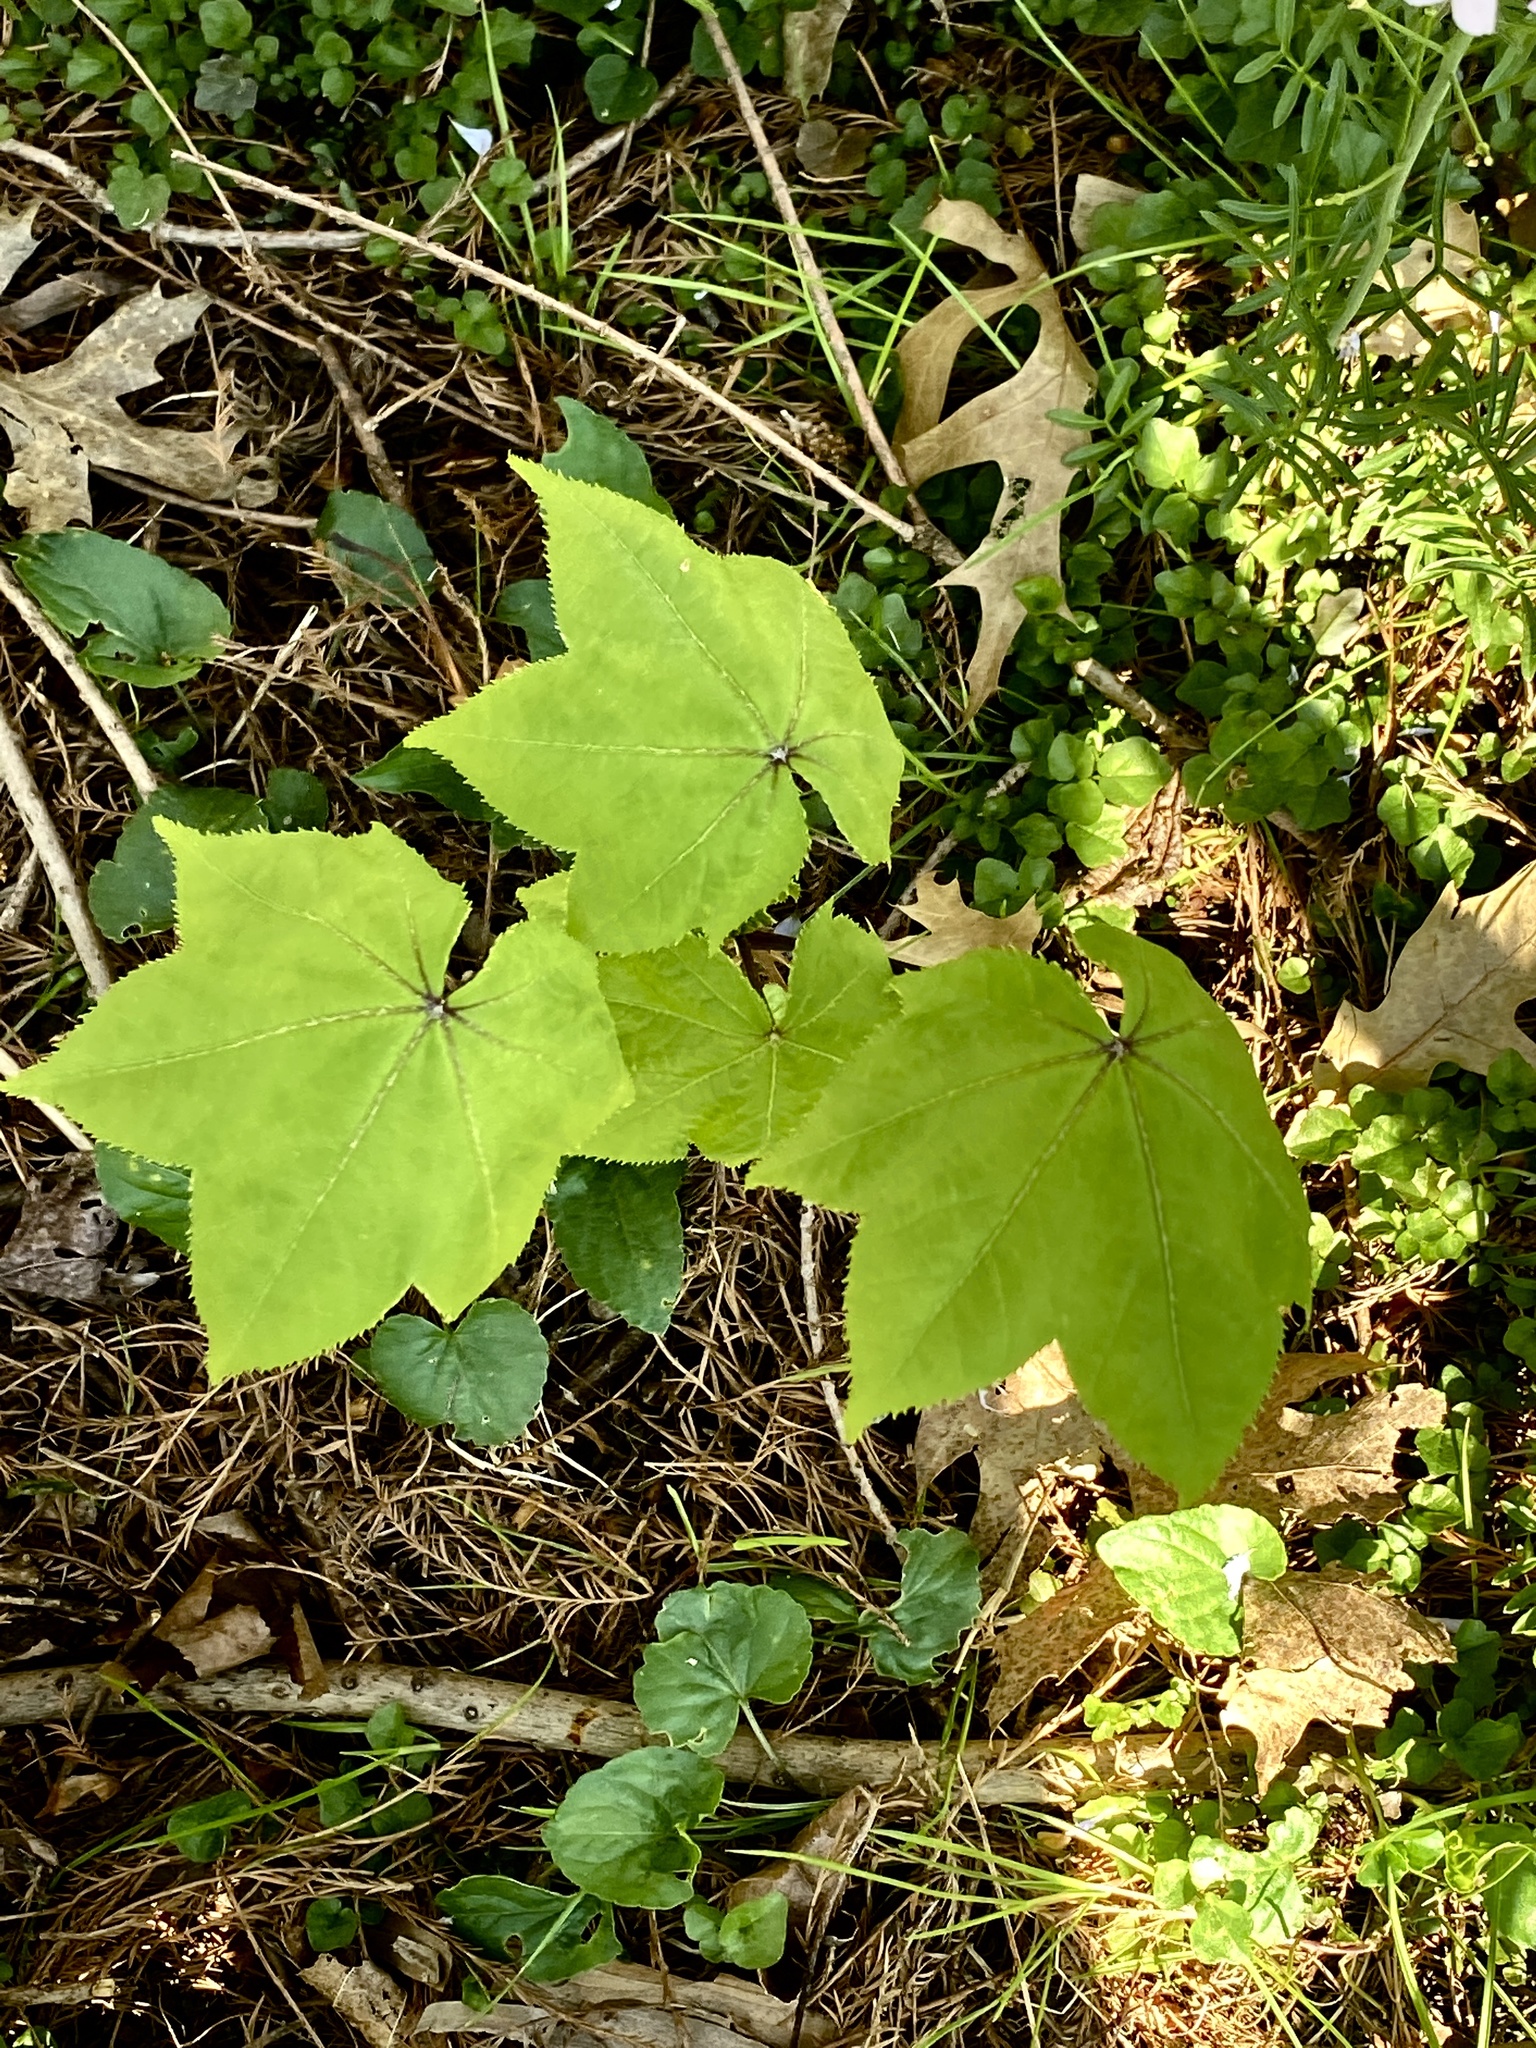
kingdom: Plantae
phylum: Tracheophyta
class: Magnoliopsida
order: Apiales
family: Araliaceae
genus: Kalopanax
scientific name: Kalopanax septemlobus
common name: Castor aralia
